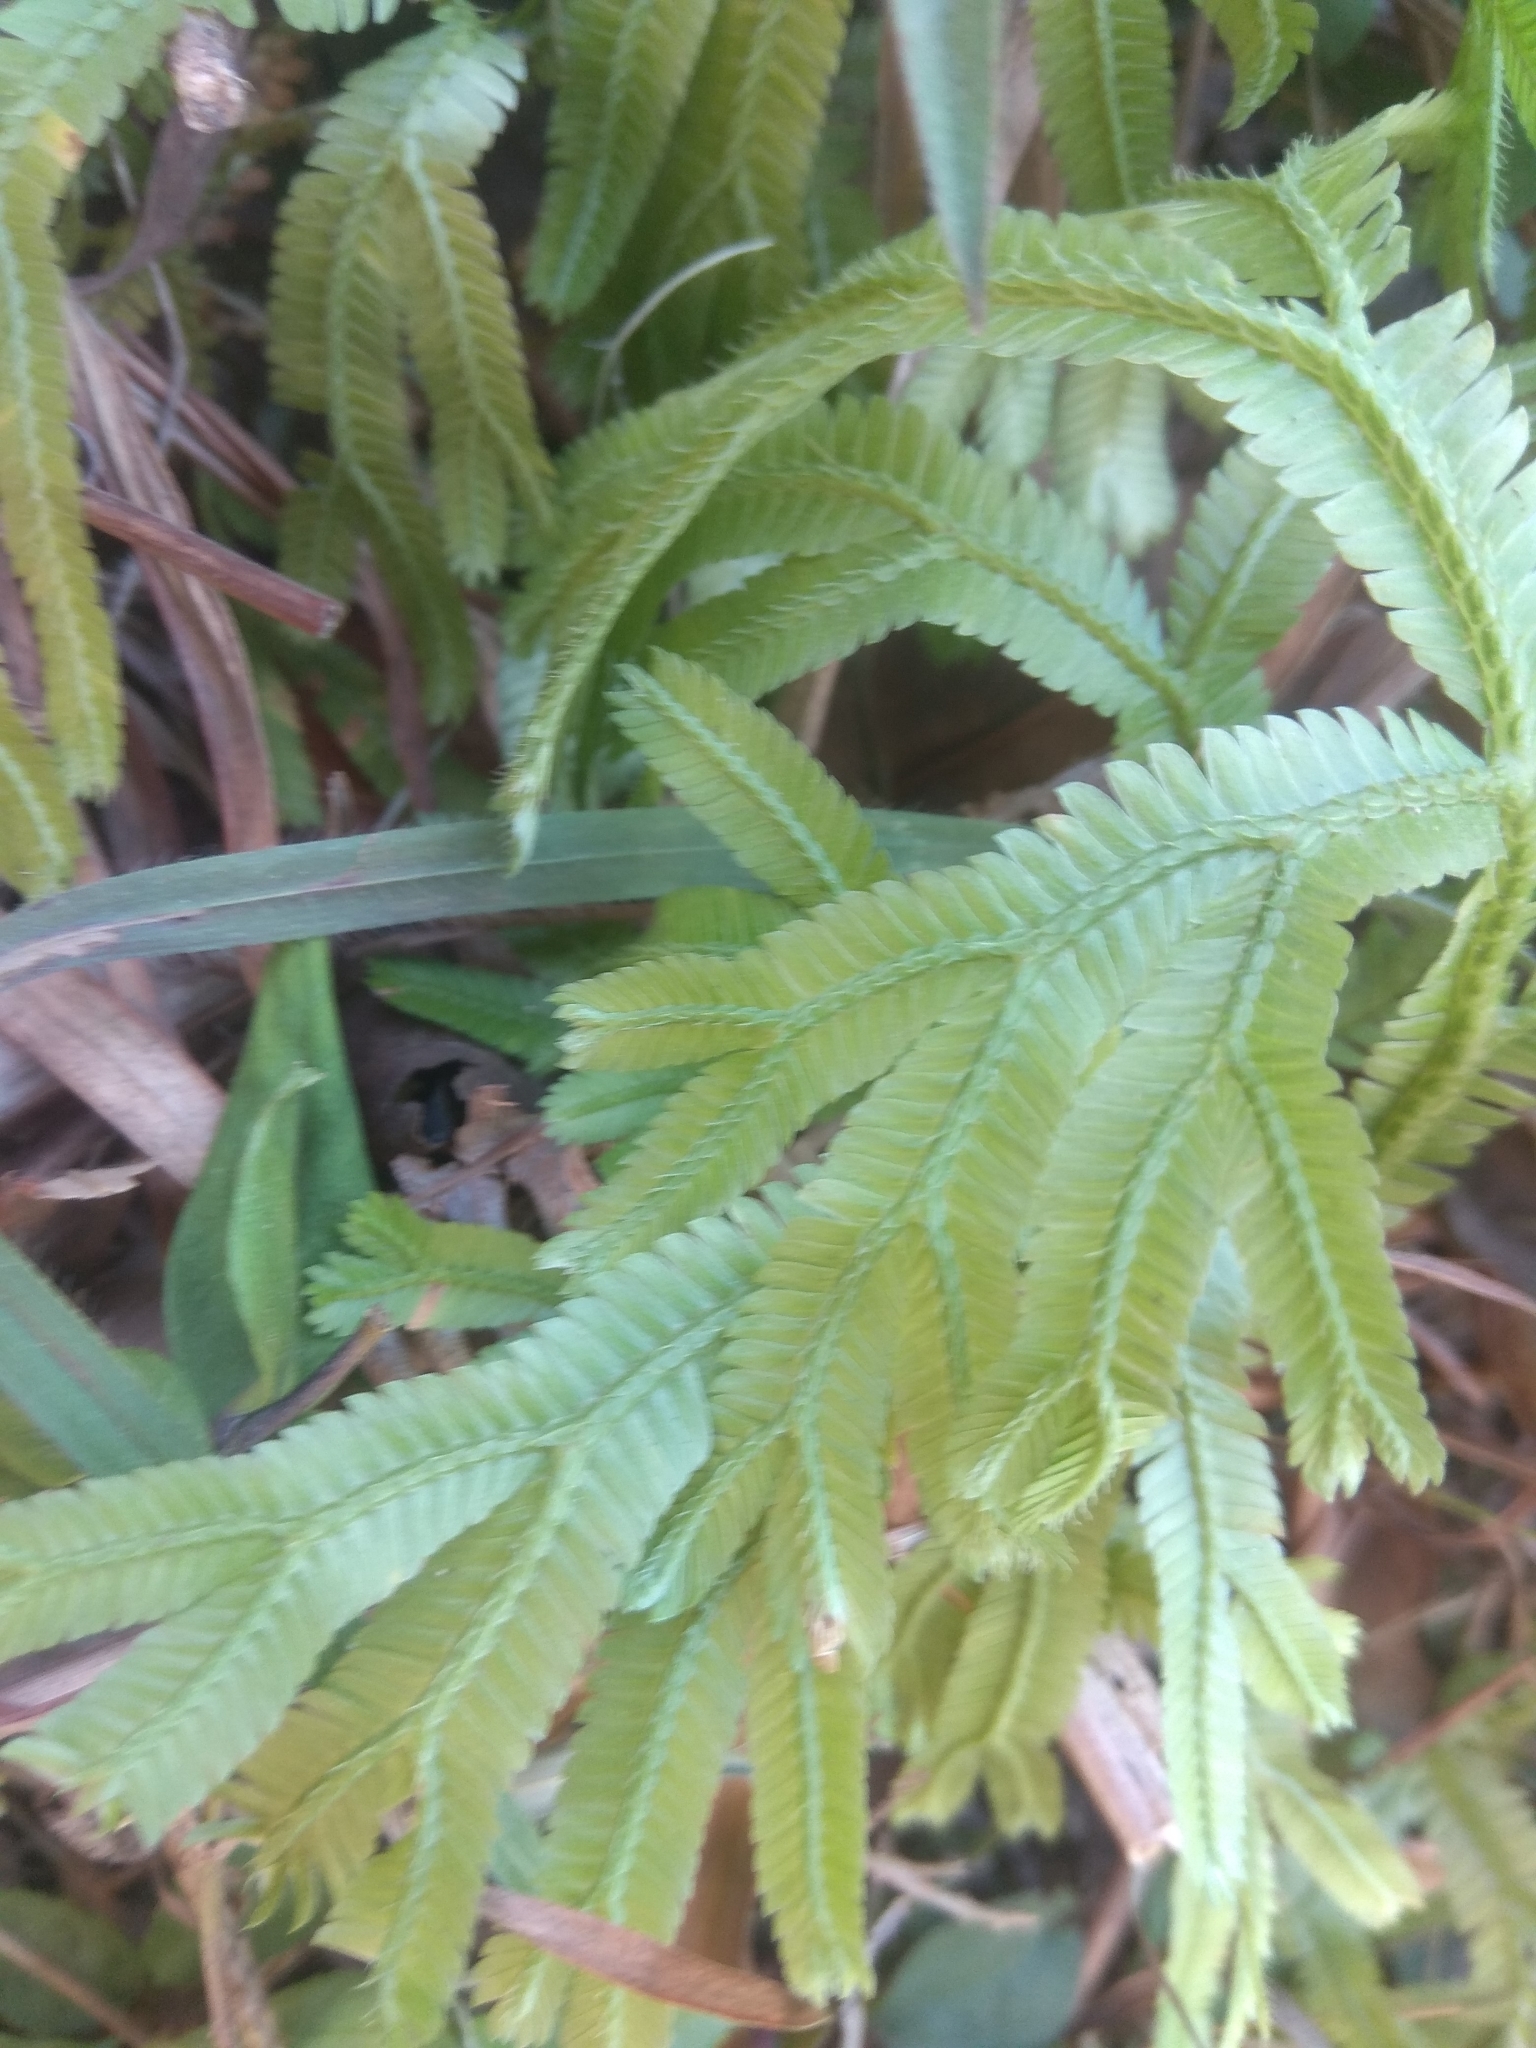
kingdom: Plantae
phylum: Tracheophyta
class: Lycopodiopsida
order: Selaginellales
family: Selaginellaceae
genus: Selaginella
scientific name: Selaginella doederleinii
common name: Greater selaginella
